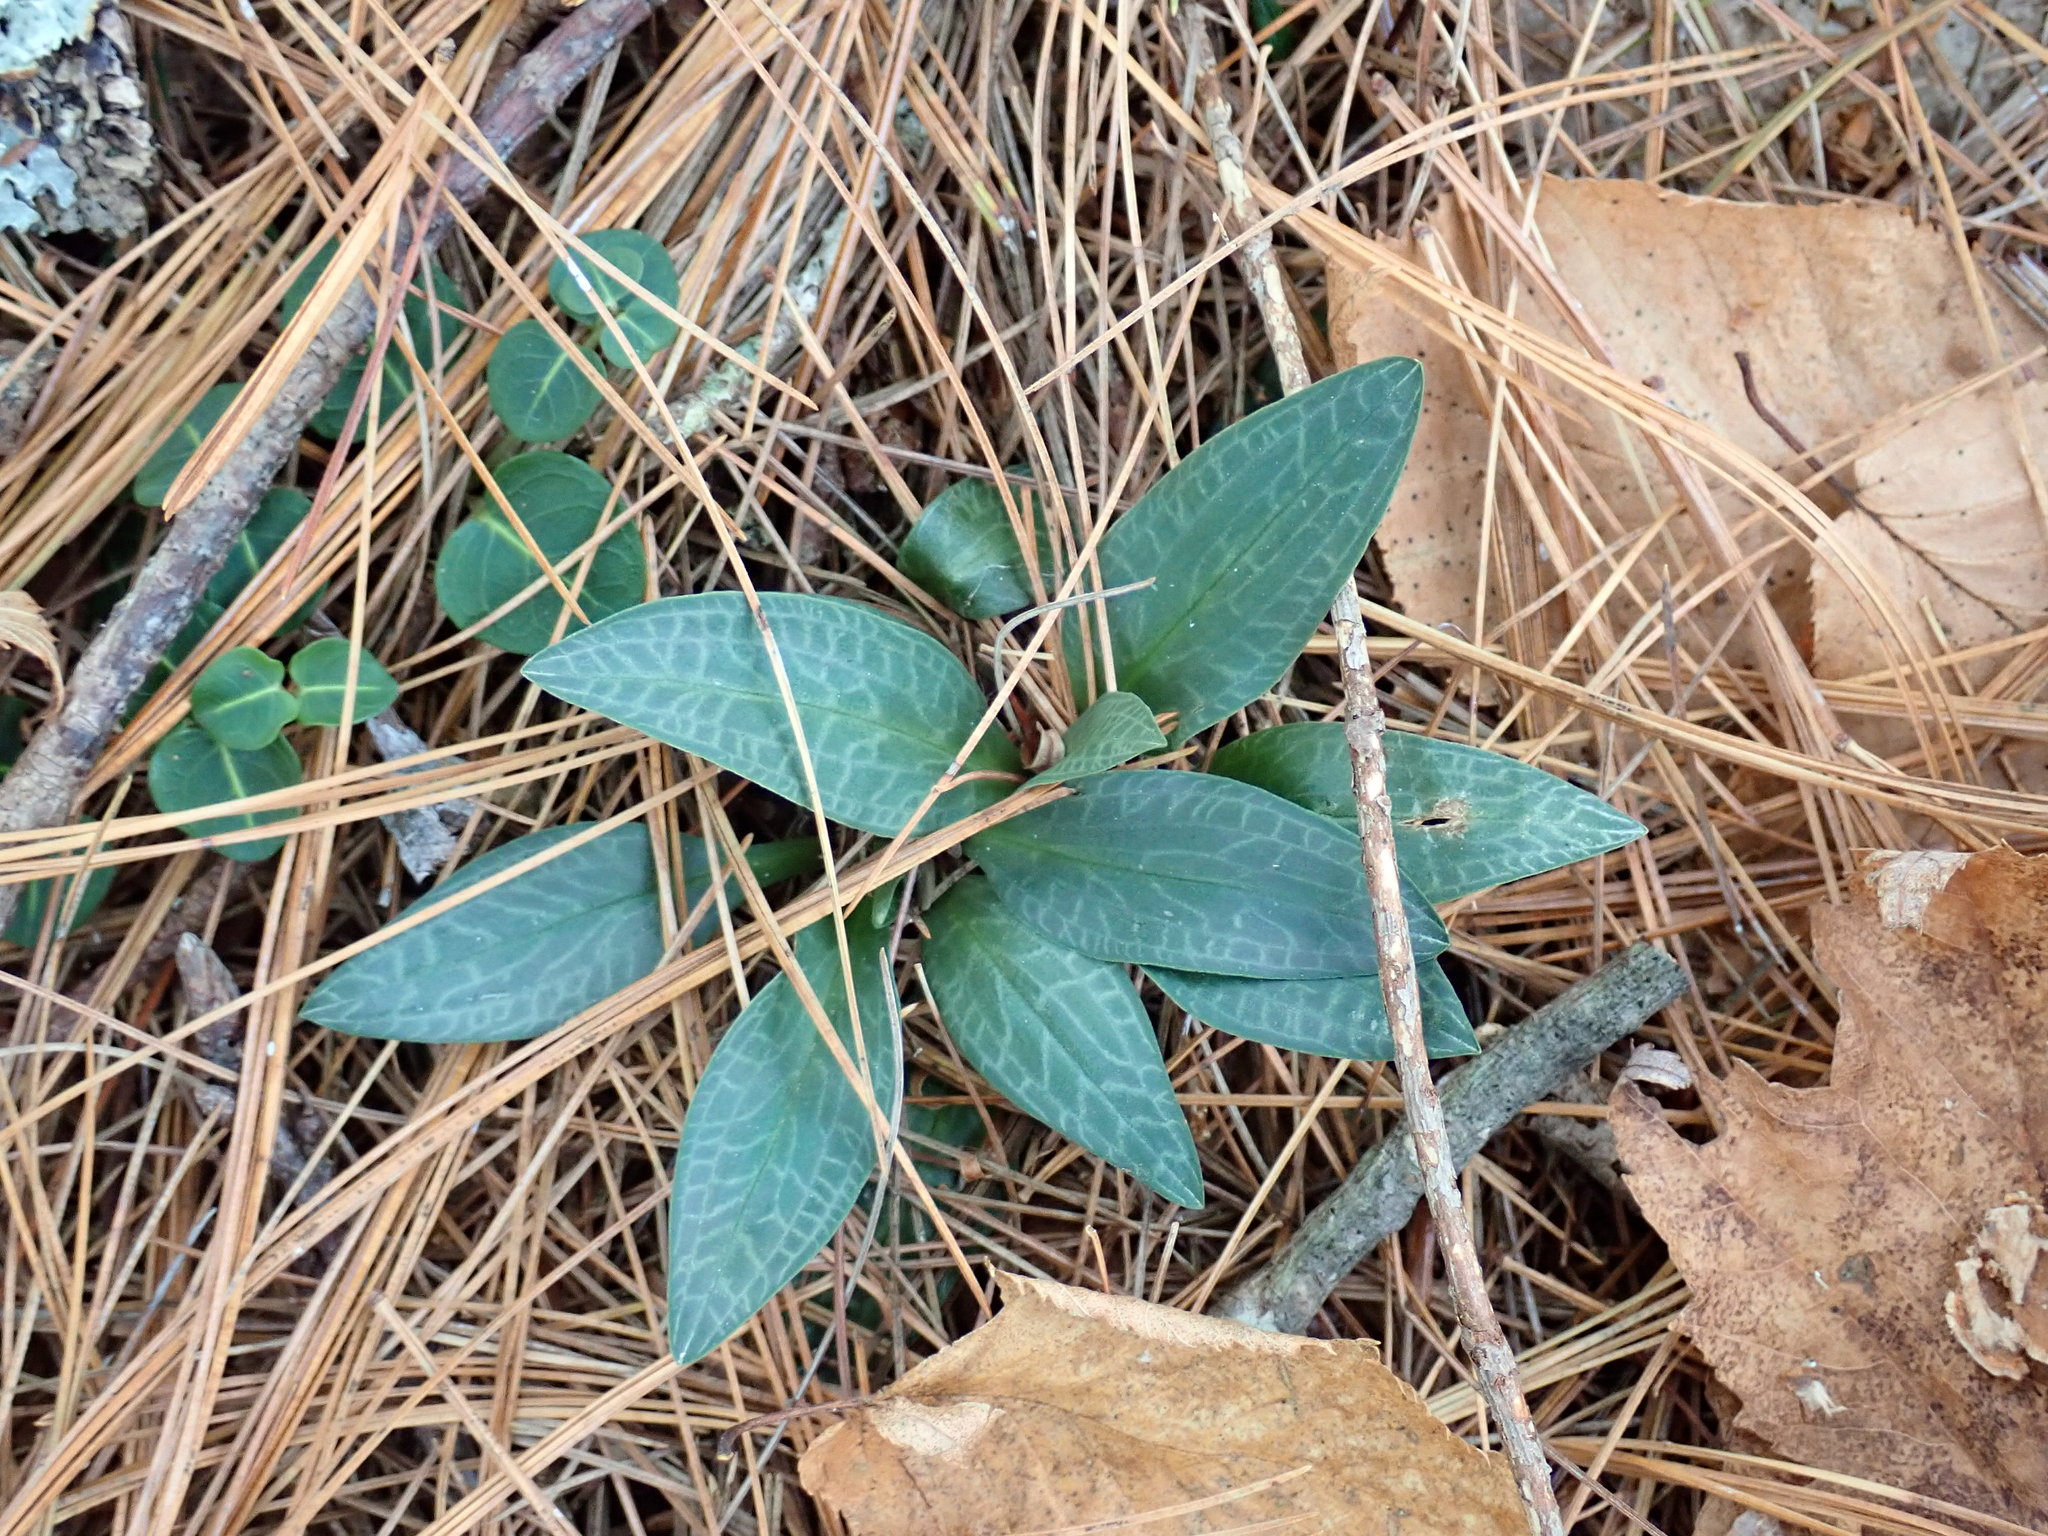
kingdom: Plantae
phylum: Tracheophyta
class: Liliopsida
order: Asparagales
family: Orchidaceae
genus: Goodyera
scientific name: Goodyera tesselata
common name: Checkered rattlesnake-plantain
